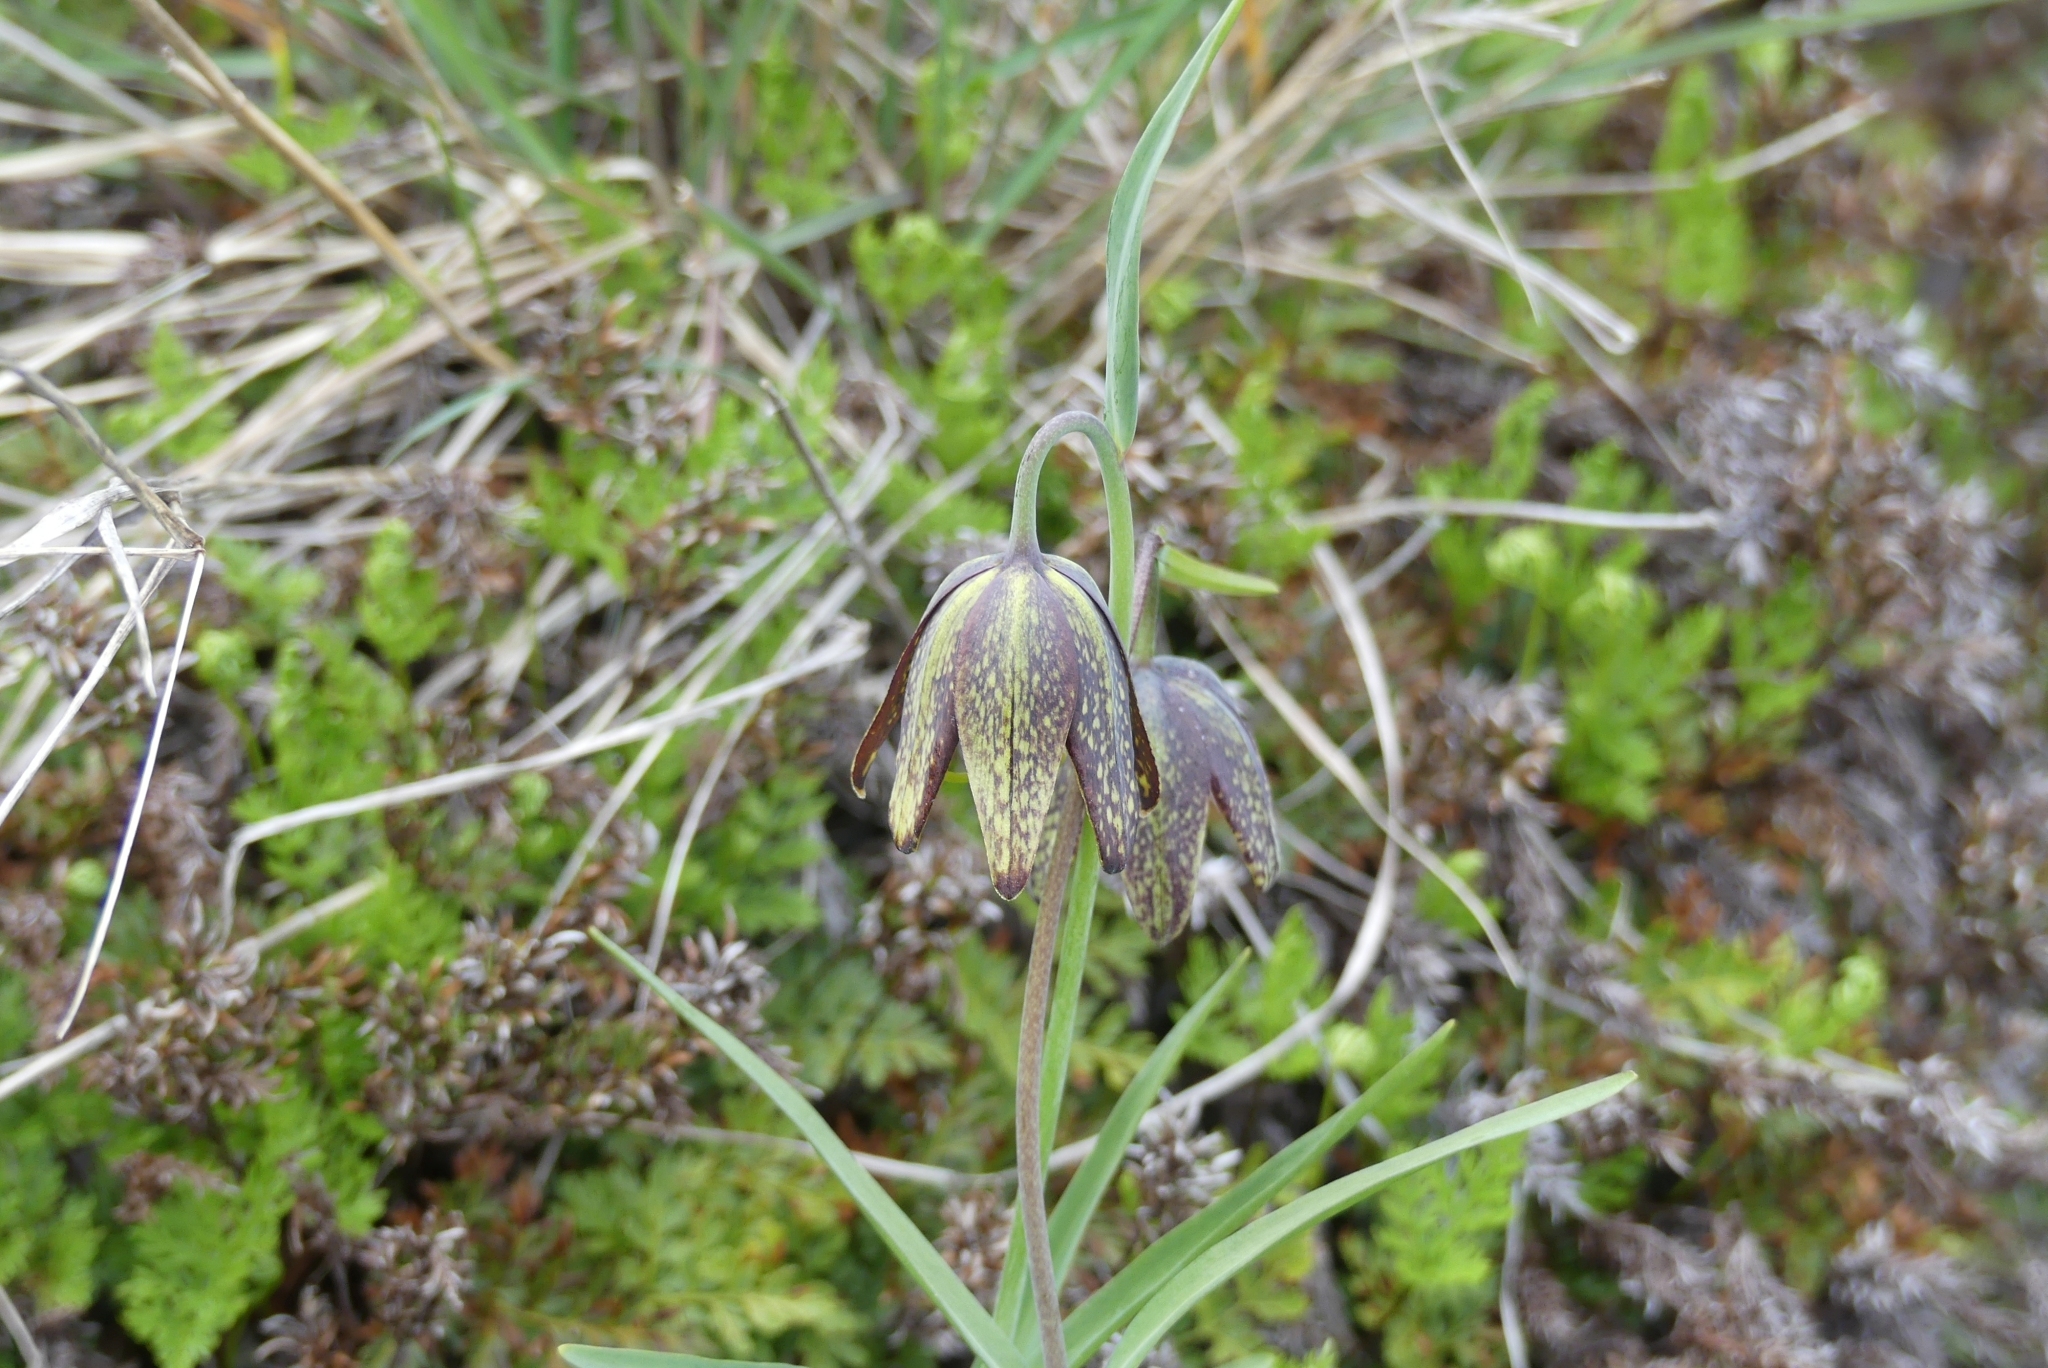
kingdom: Plantae
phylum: Tracheophyta
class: Liliopsida
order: Liliales
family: Liliaceae
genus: Fritillaria
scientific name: Fritillaria affinis
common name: Ojai fritillary
